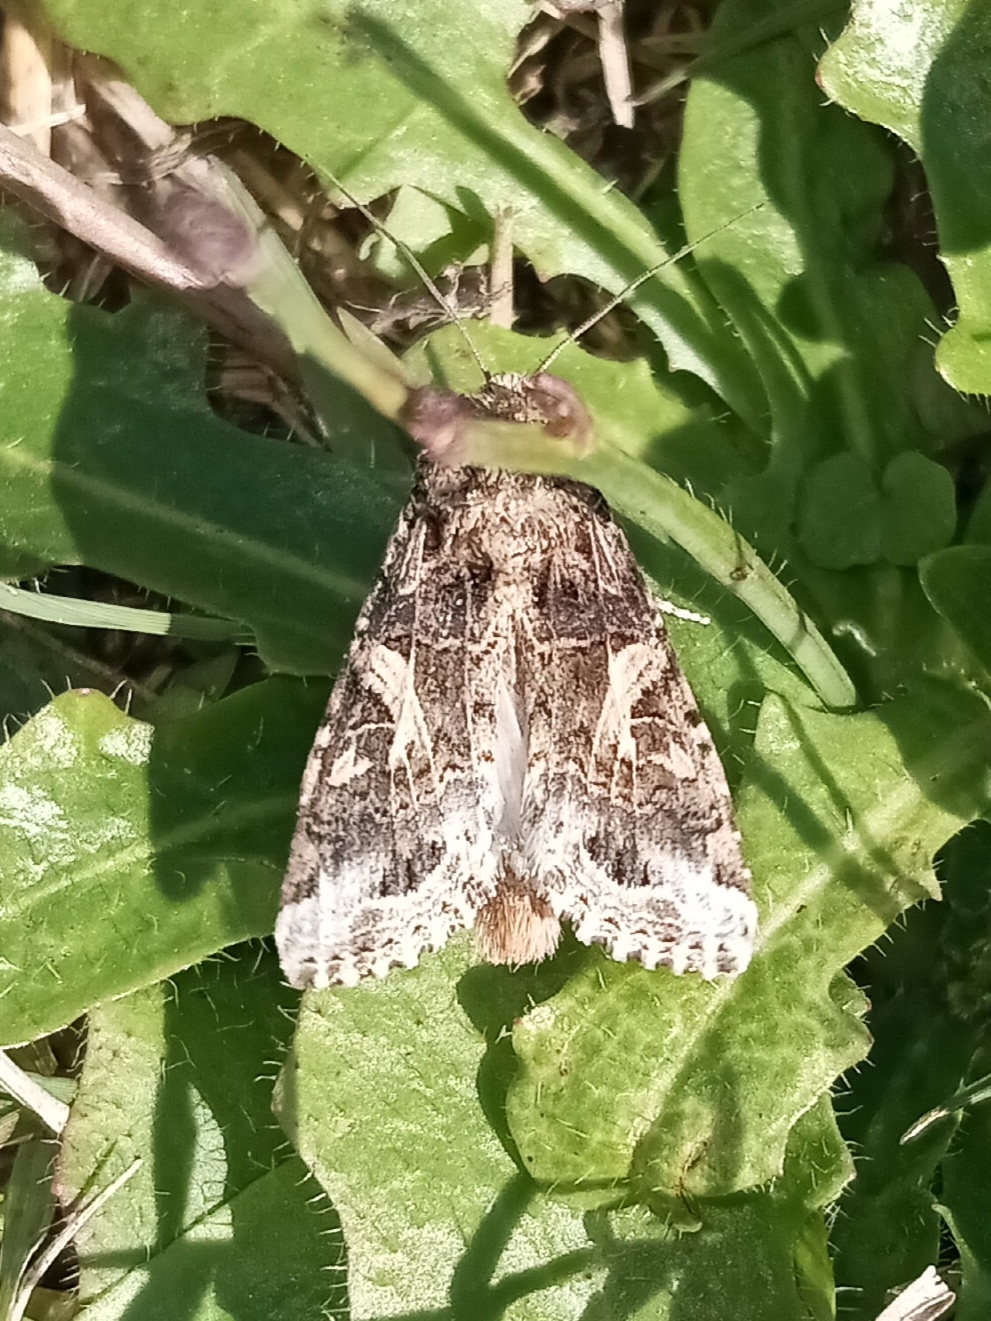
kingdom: Animalia
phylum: Arthropoda
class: Insecta
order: Lepidoptera
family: Noctuidae
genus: Spodoptera
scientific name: Spodoptera ornithogalli
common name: Yellow-striped armyworm
